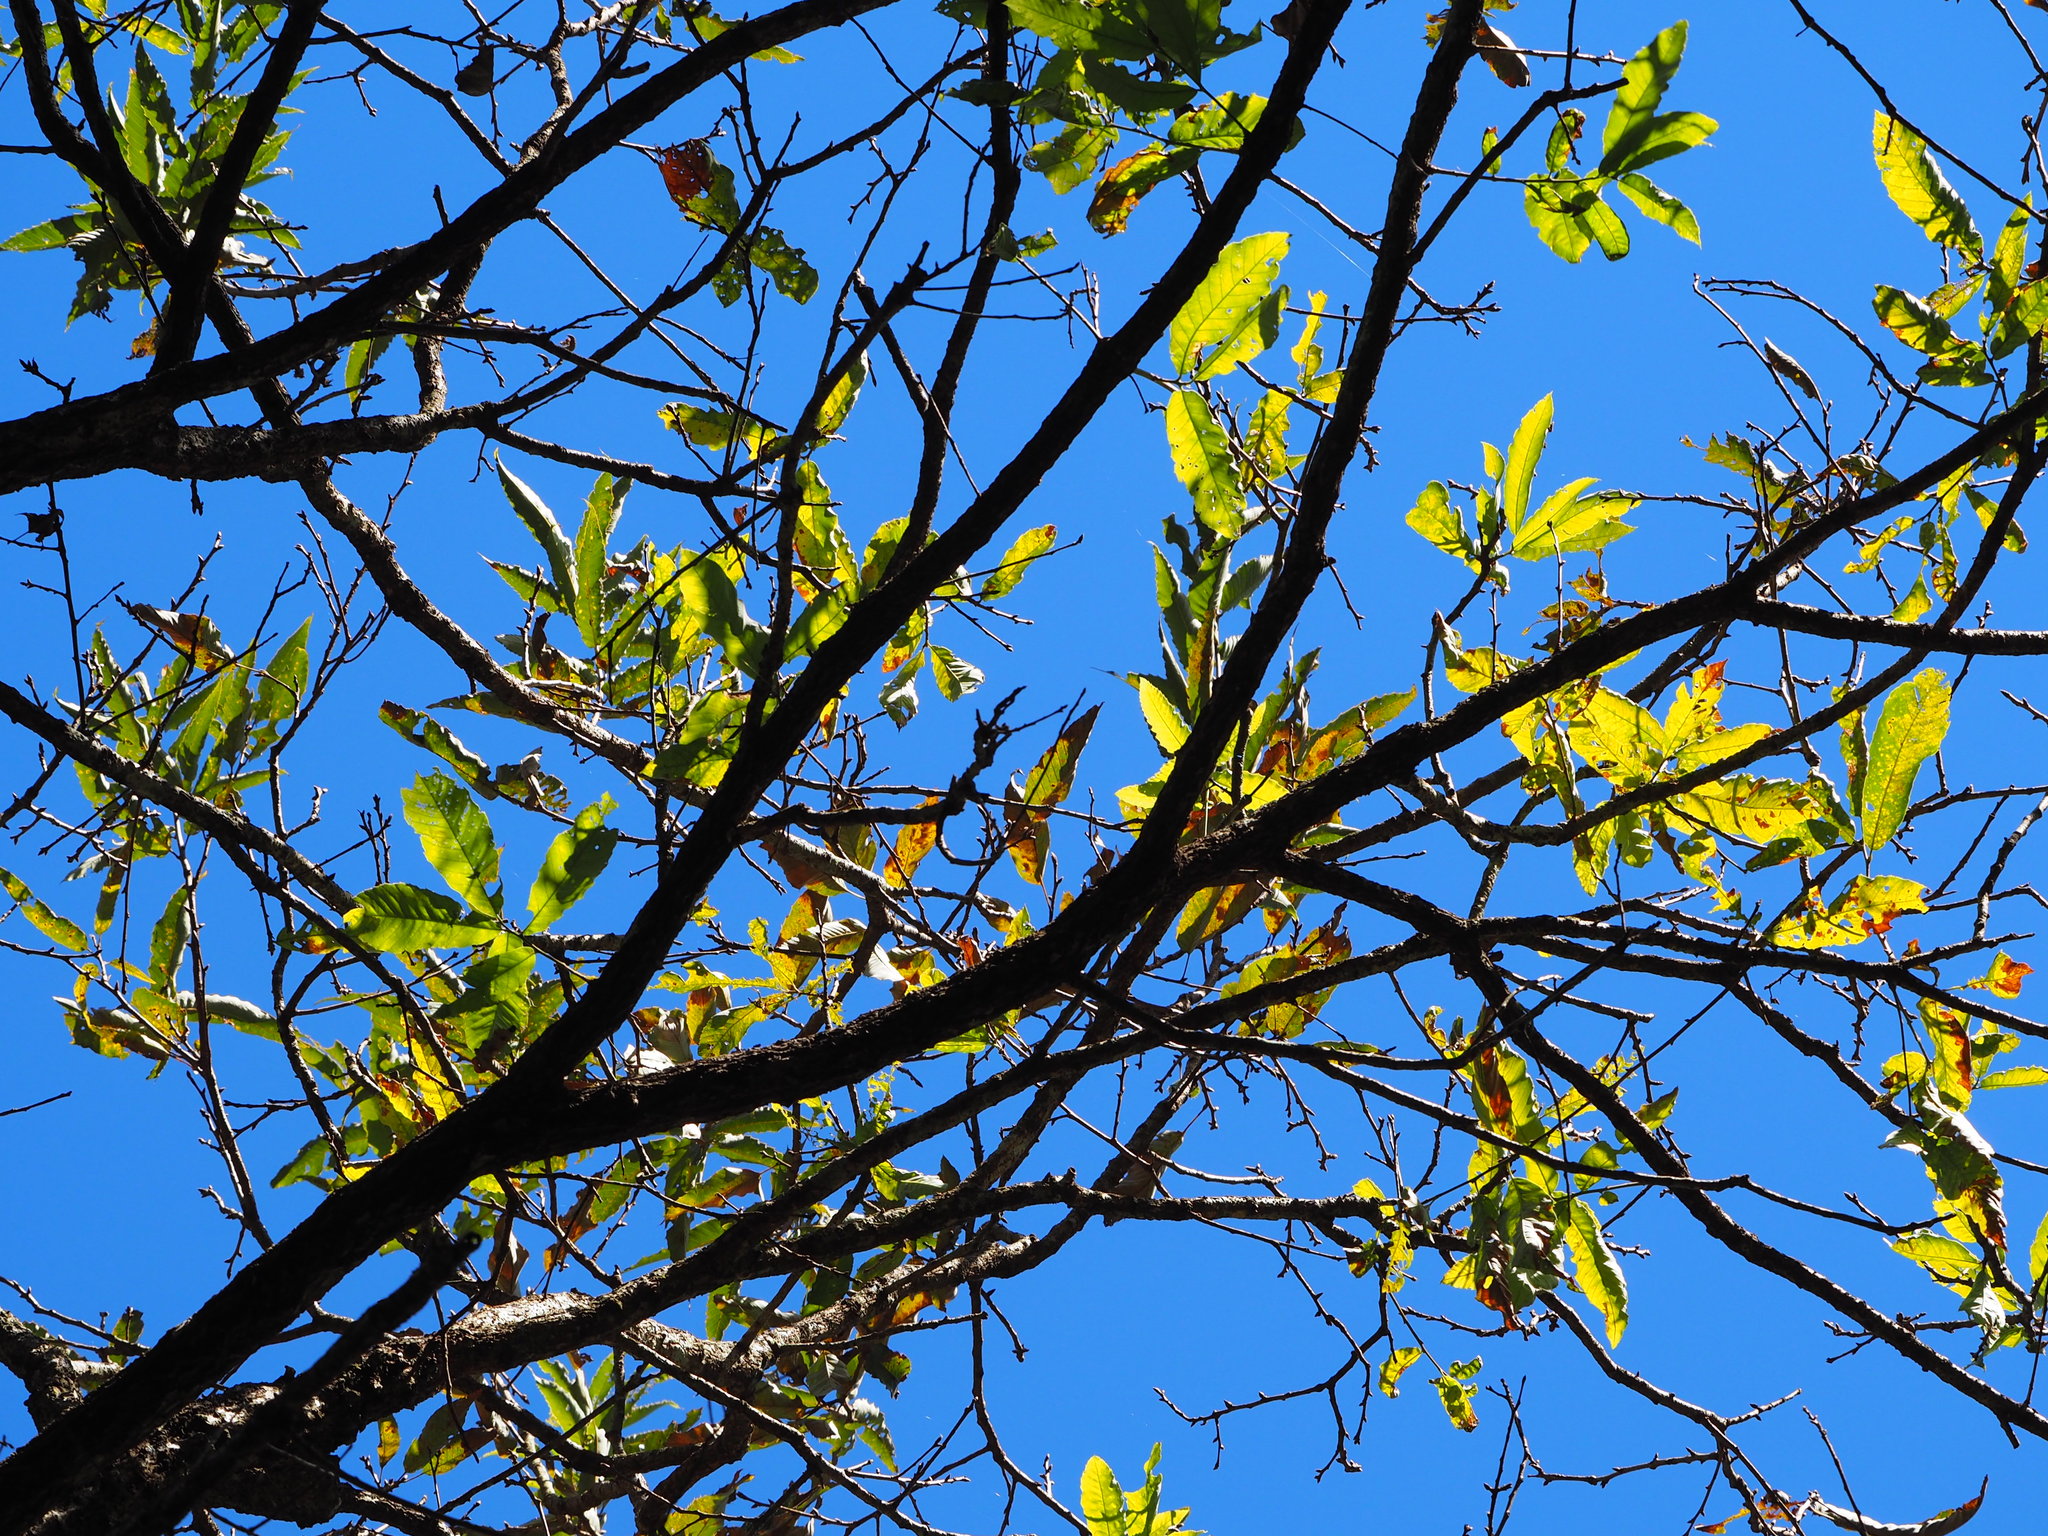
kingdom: Plantae
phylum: Tracheophyta
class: Magnoliopsida
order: Fagales
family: Fagaceae
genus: Quercus
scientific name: Quercus variabilis
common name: Chinese cork oak
